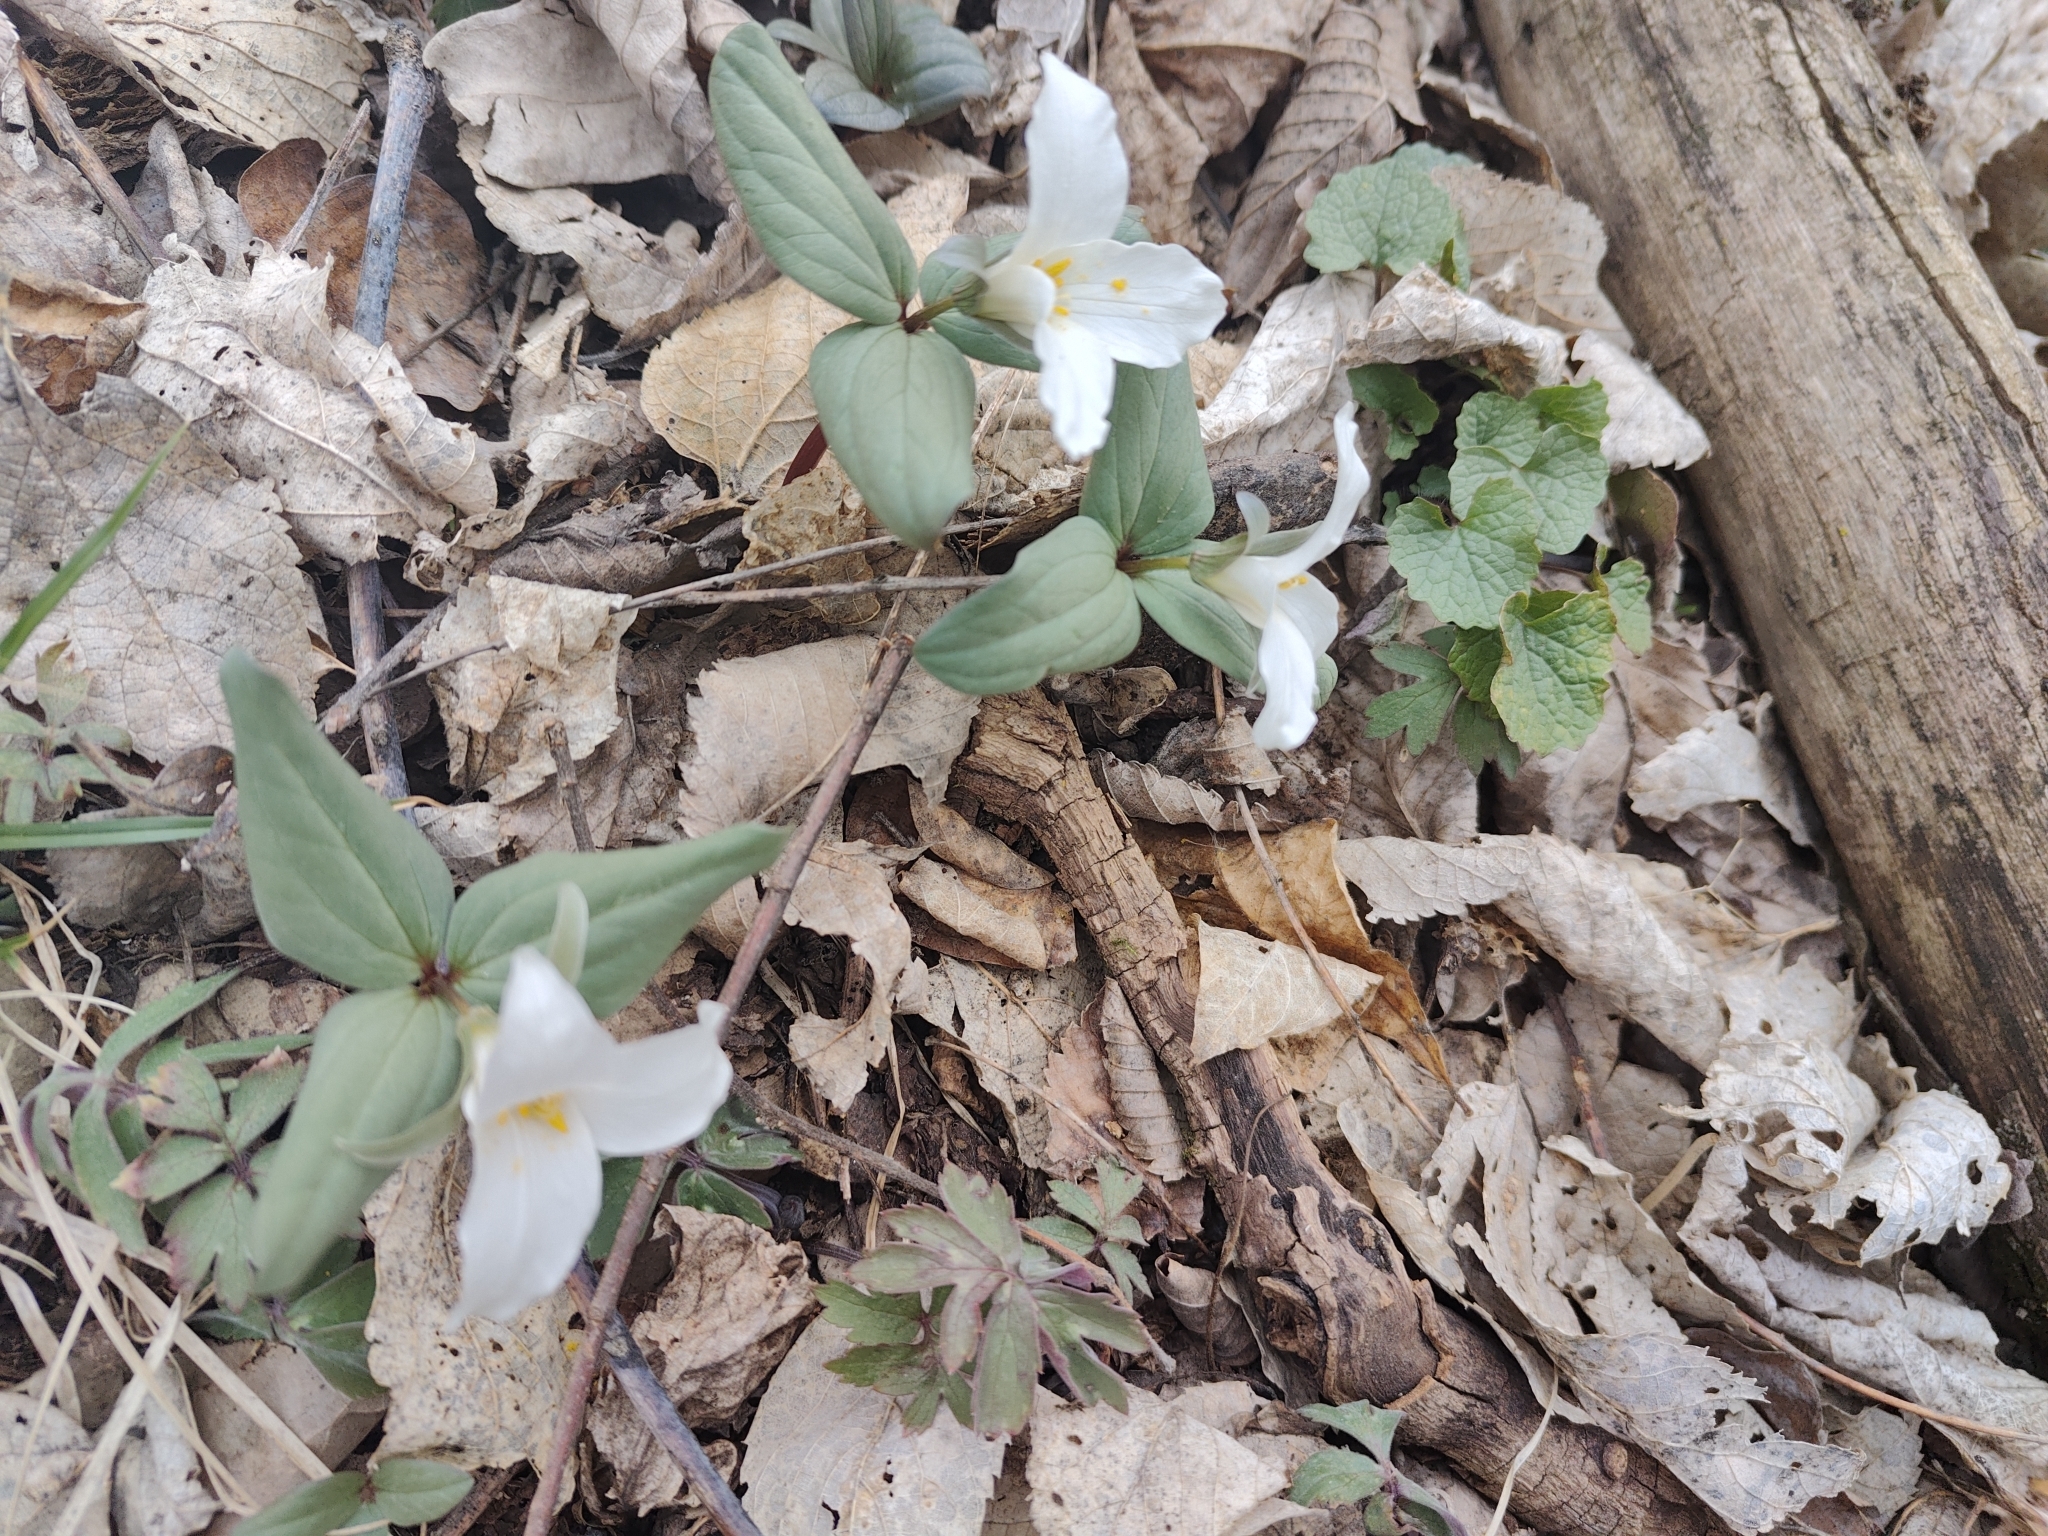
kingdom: Plantae
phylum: Tracheophyta
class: Liliopsida
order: Liliales
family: Melanthiaceae
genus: Trillium
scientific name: Trillium nivale
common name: Dwarf white trillium
